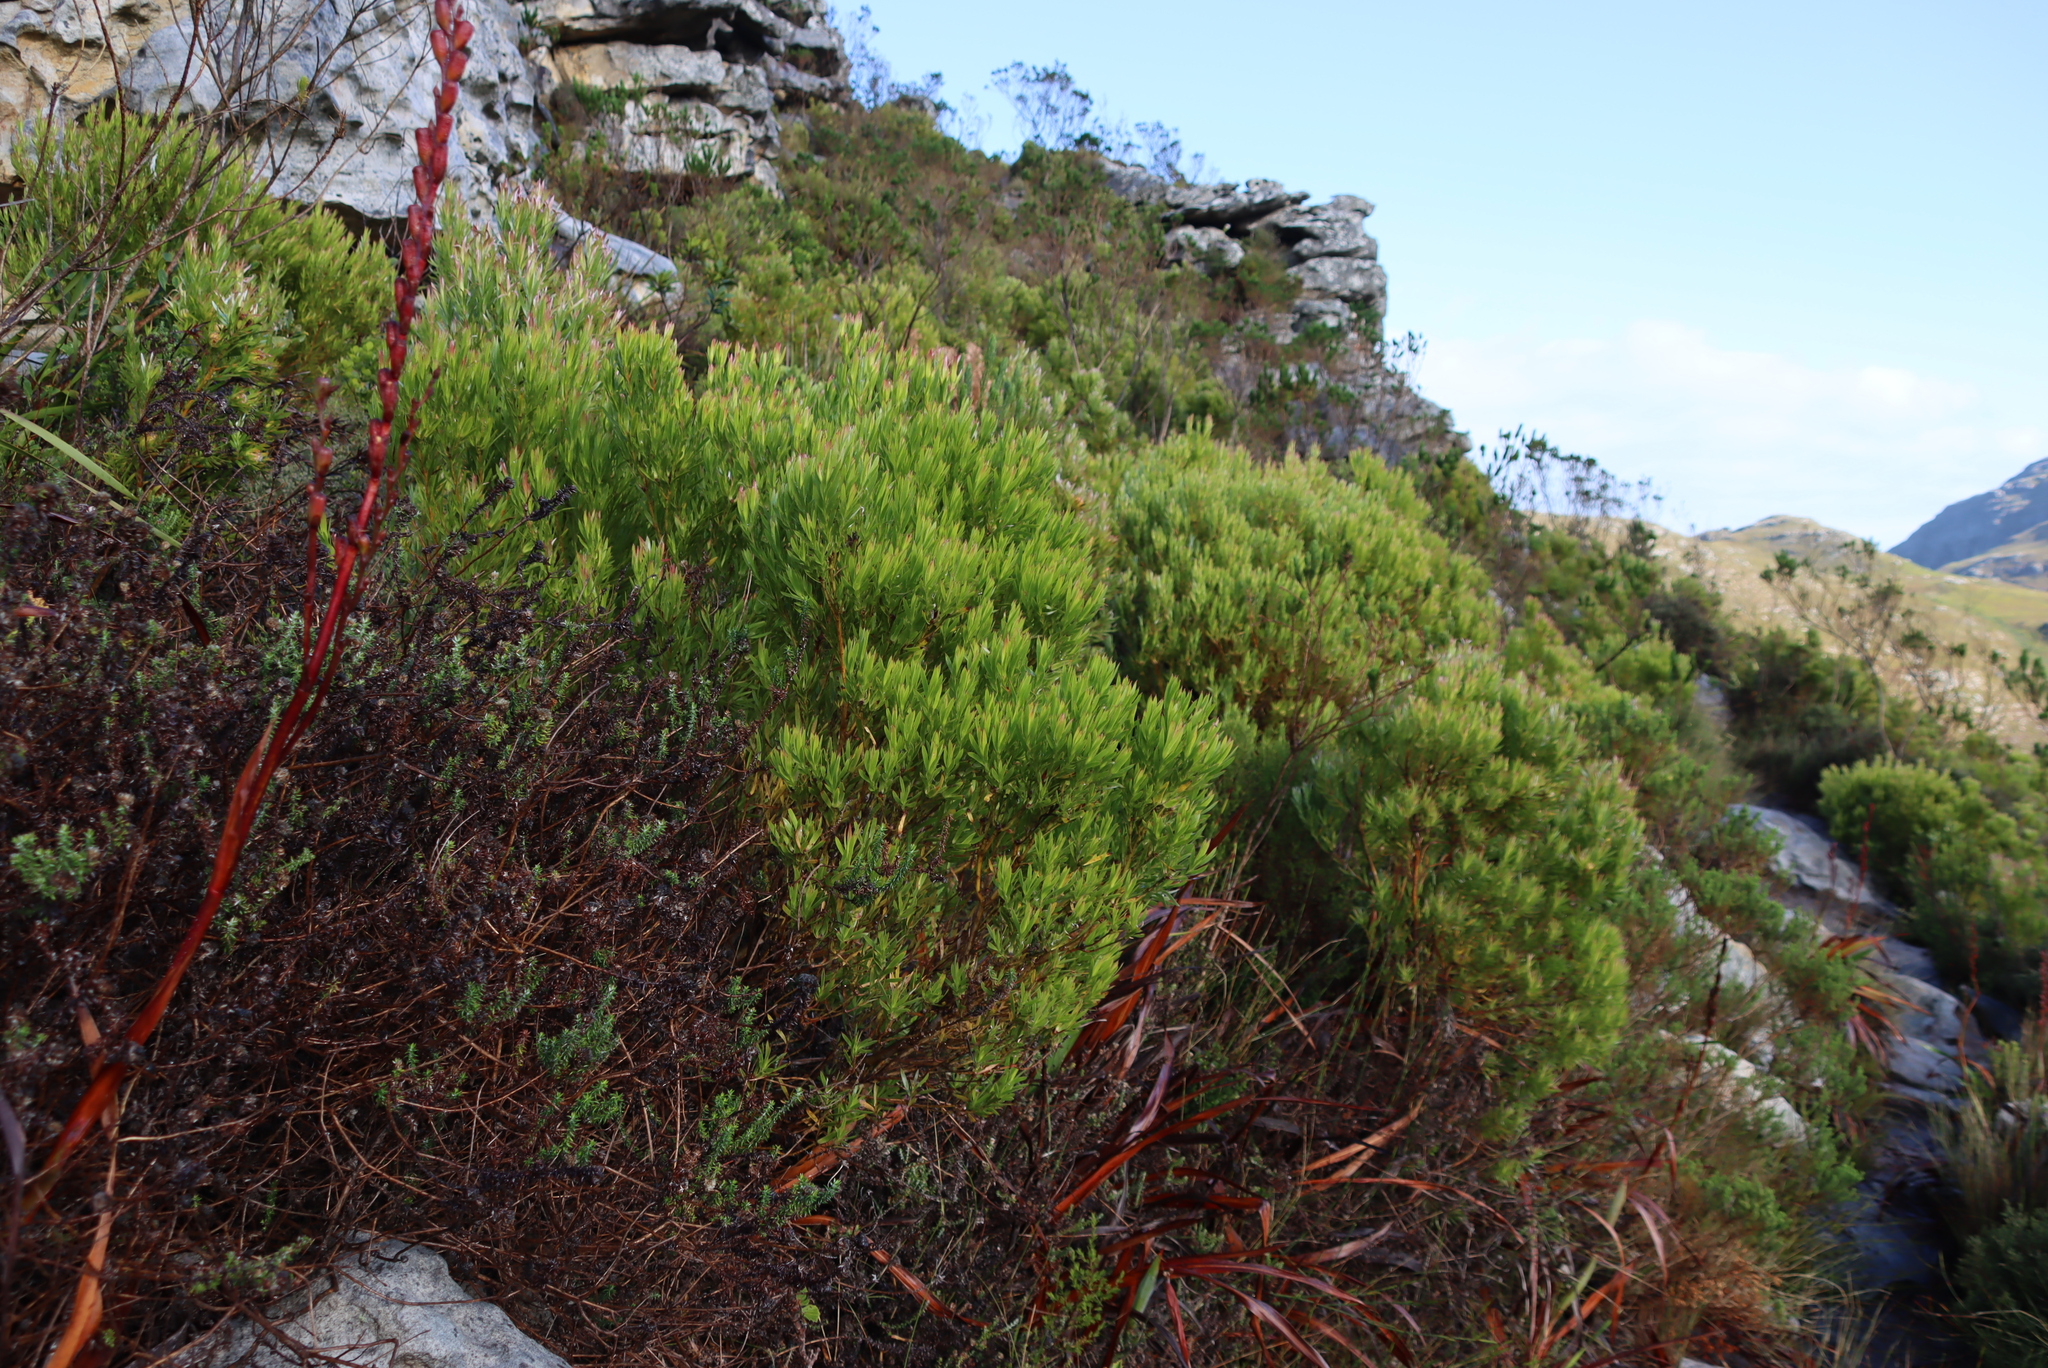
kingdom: Plantae
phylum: Tracheophyta
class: Magnoliopsida
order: Proteales
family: Proteaceae
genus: Leucadendron
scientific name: Leucadendron xanthoconus
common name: Sickle-leaf conebush
